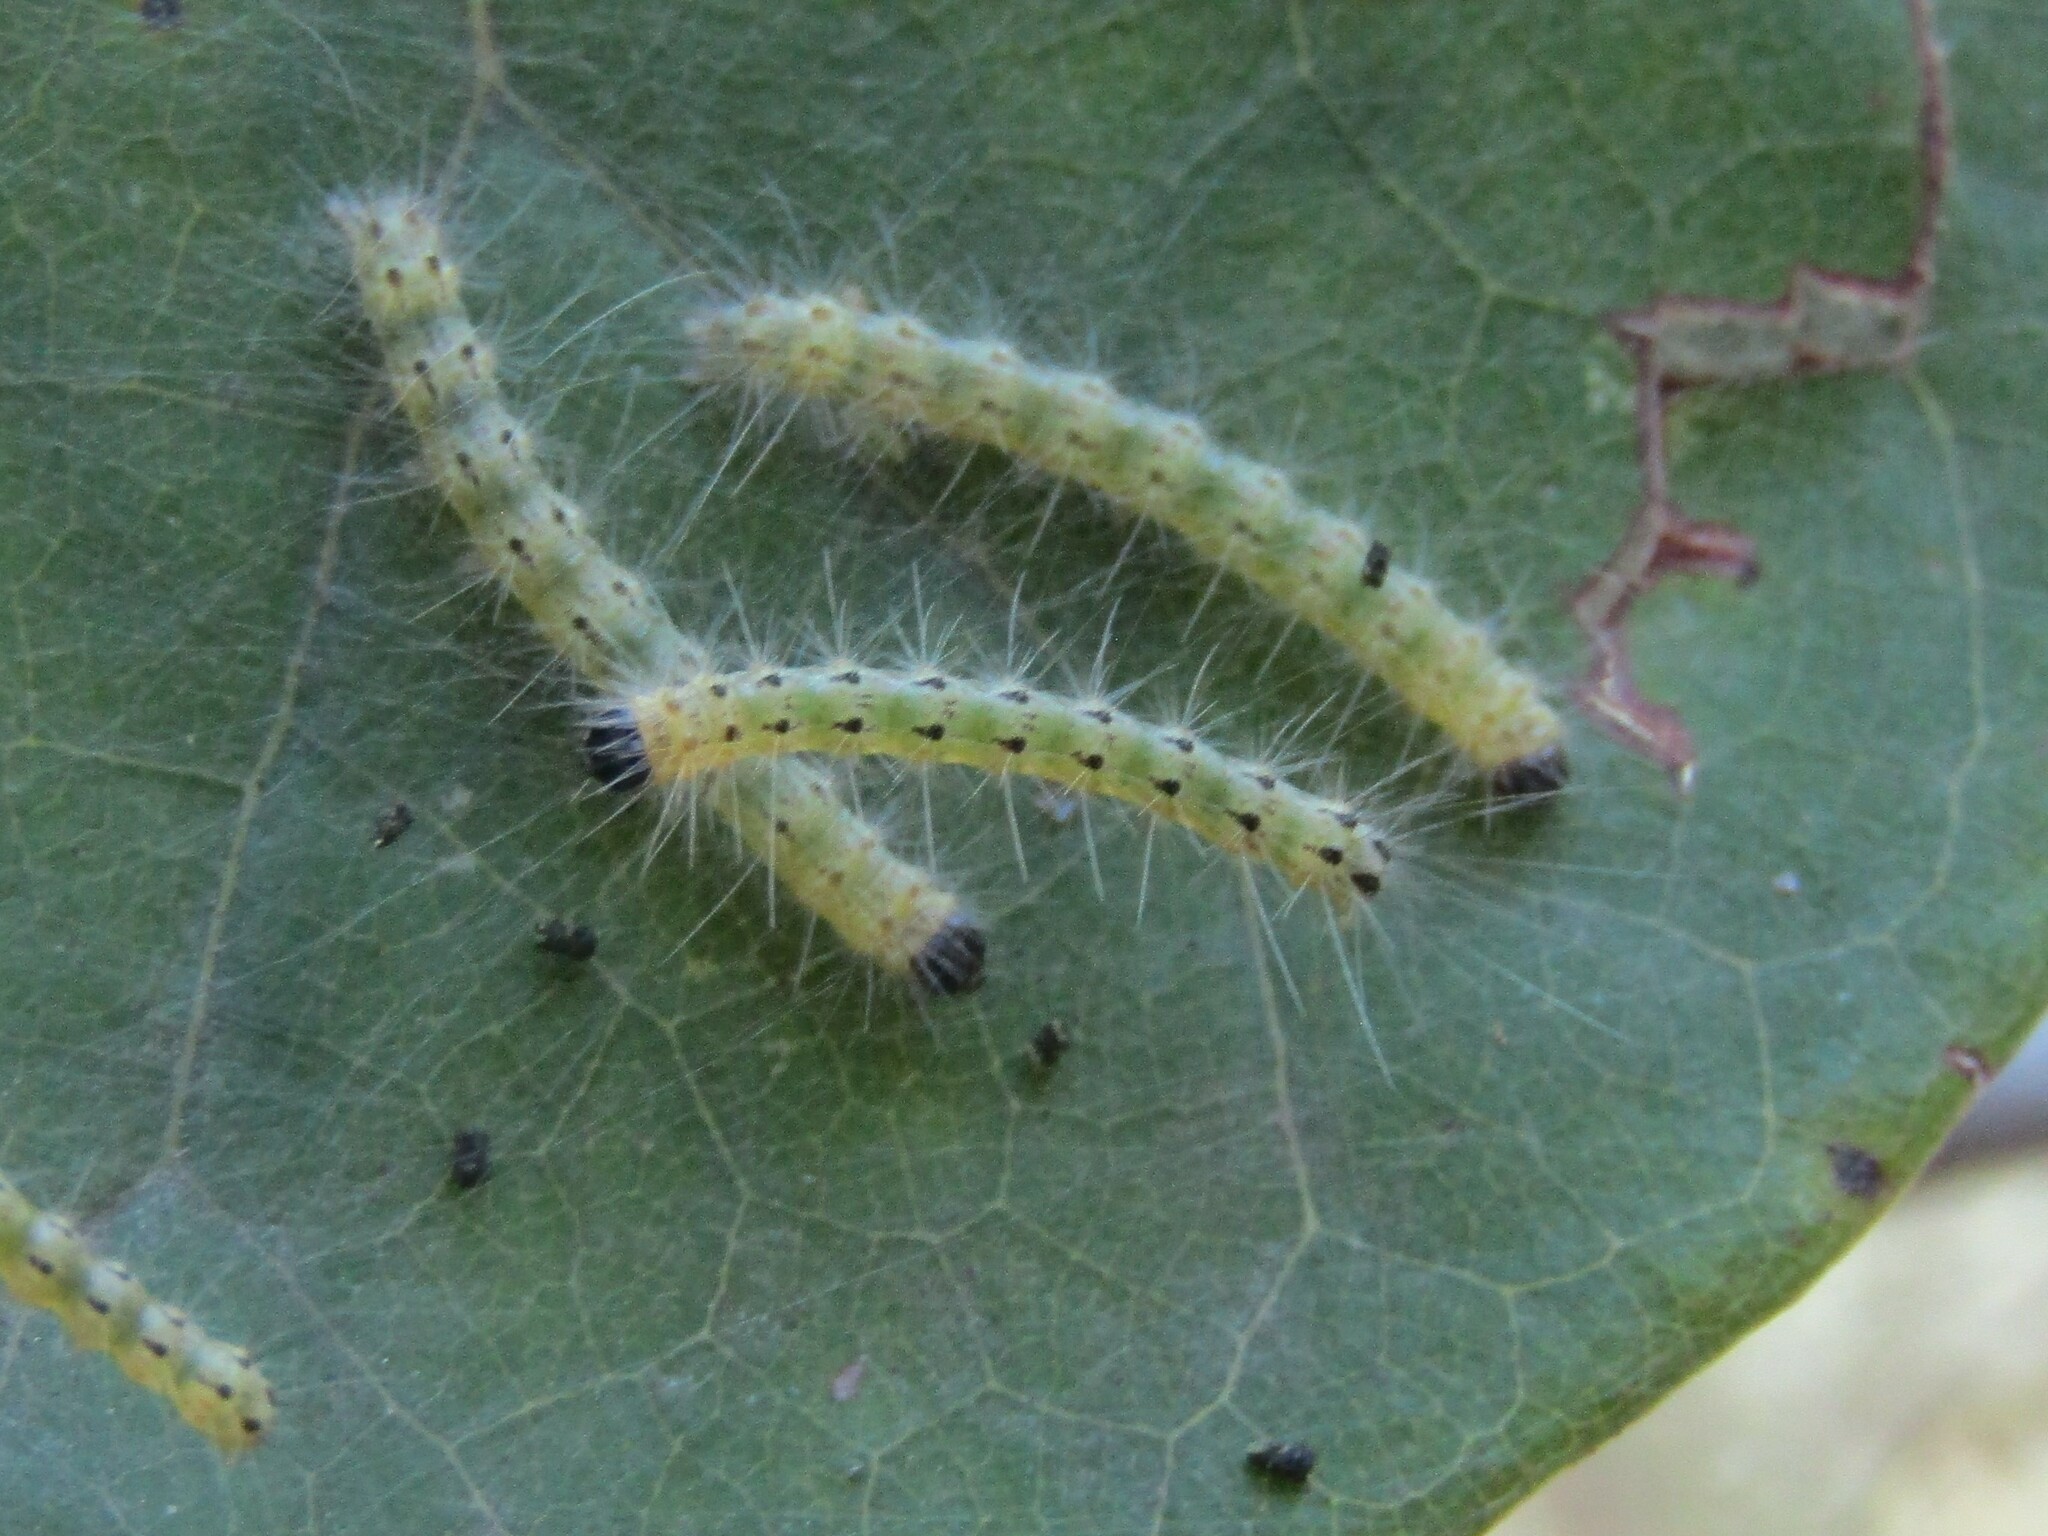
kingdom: Animalia
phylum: Arthropoda
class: Insecta
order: Lepidoptera
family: Erebidae
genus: Hyphantria
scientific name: Hyphantria cunea
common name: American white moth
